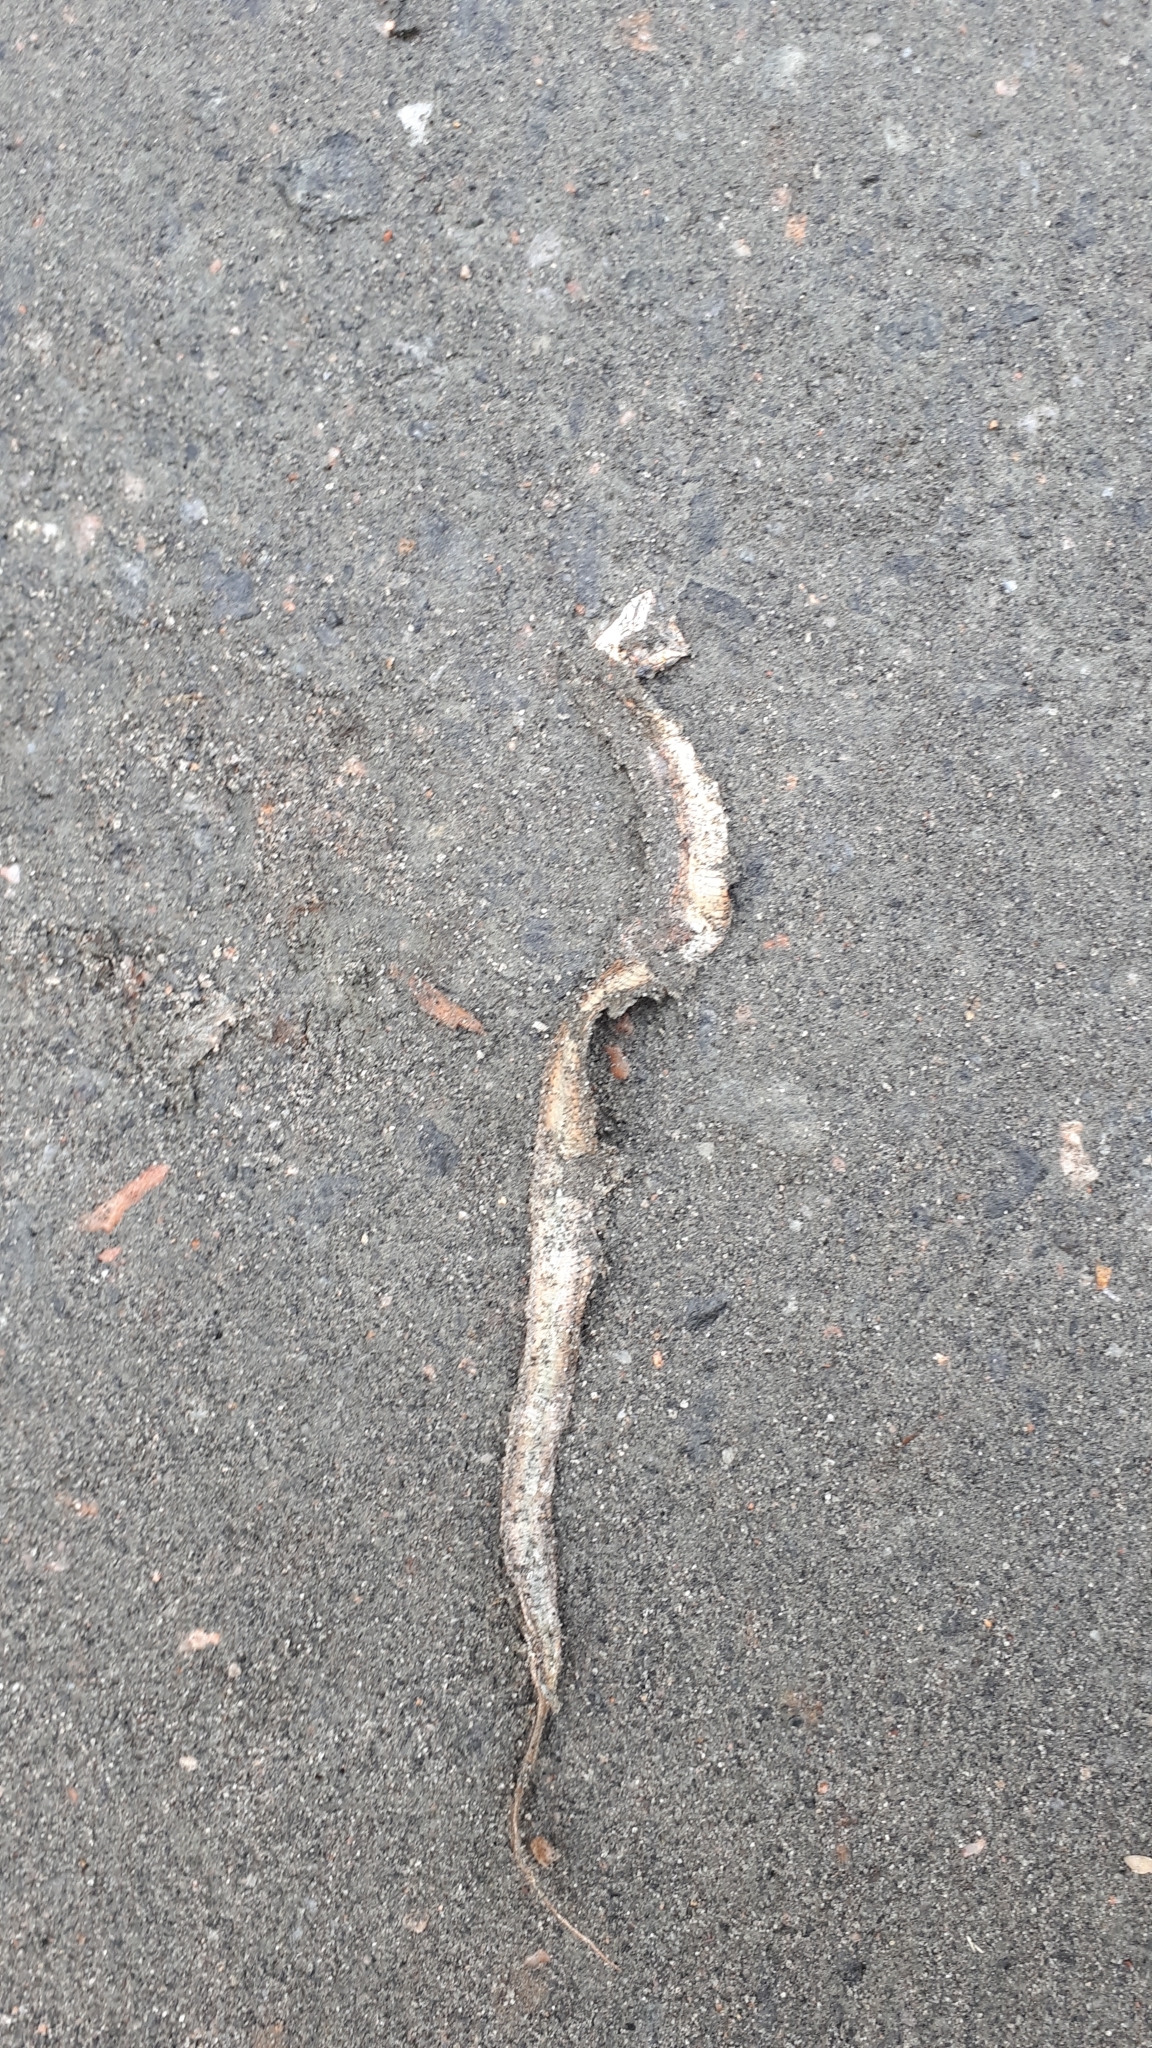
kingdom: Animalia
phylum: Chordata
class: Squamata
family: Colubridae
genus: Thamnophis
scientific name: Thamnophis sirtalis
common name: Common garter snake
